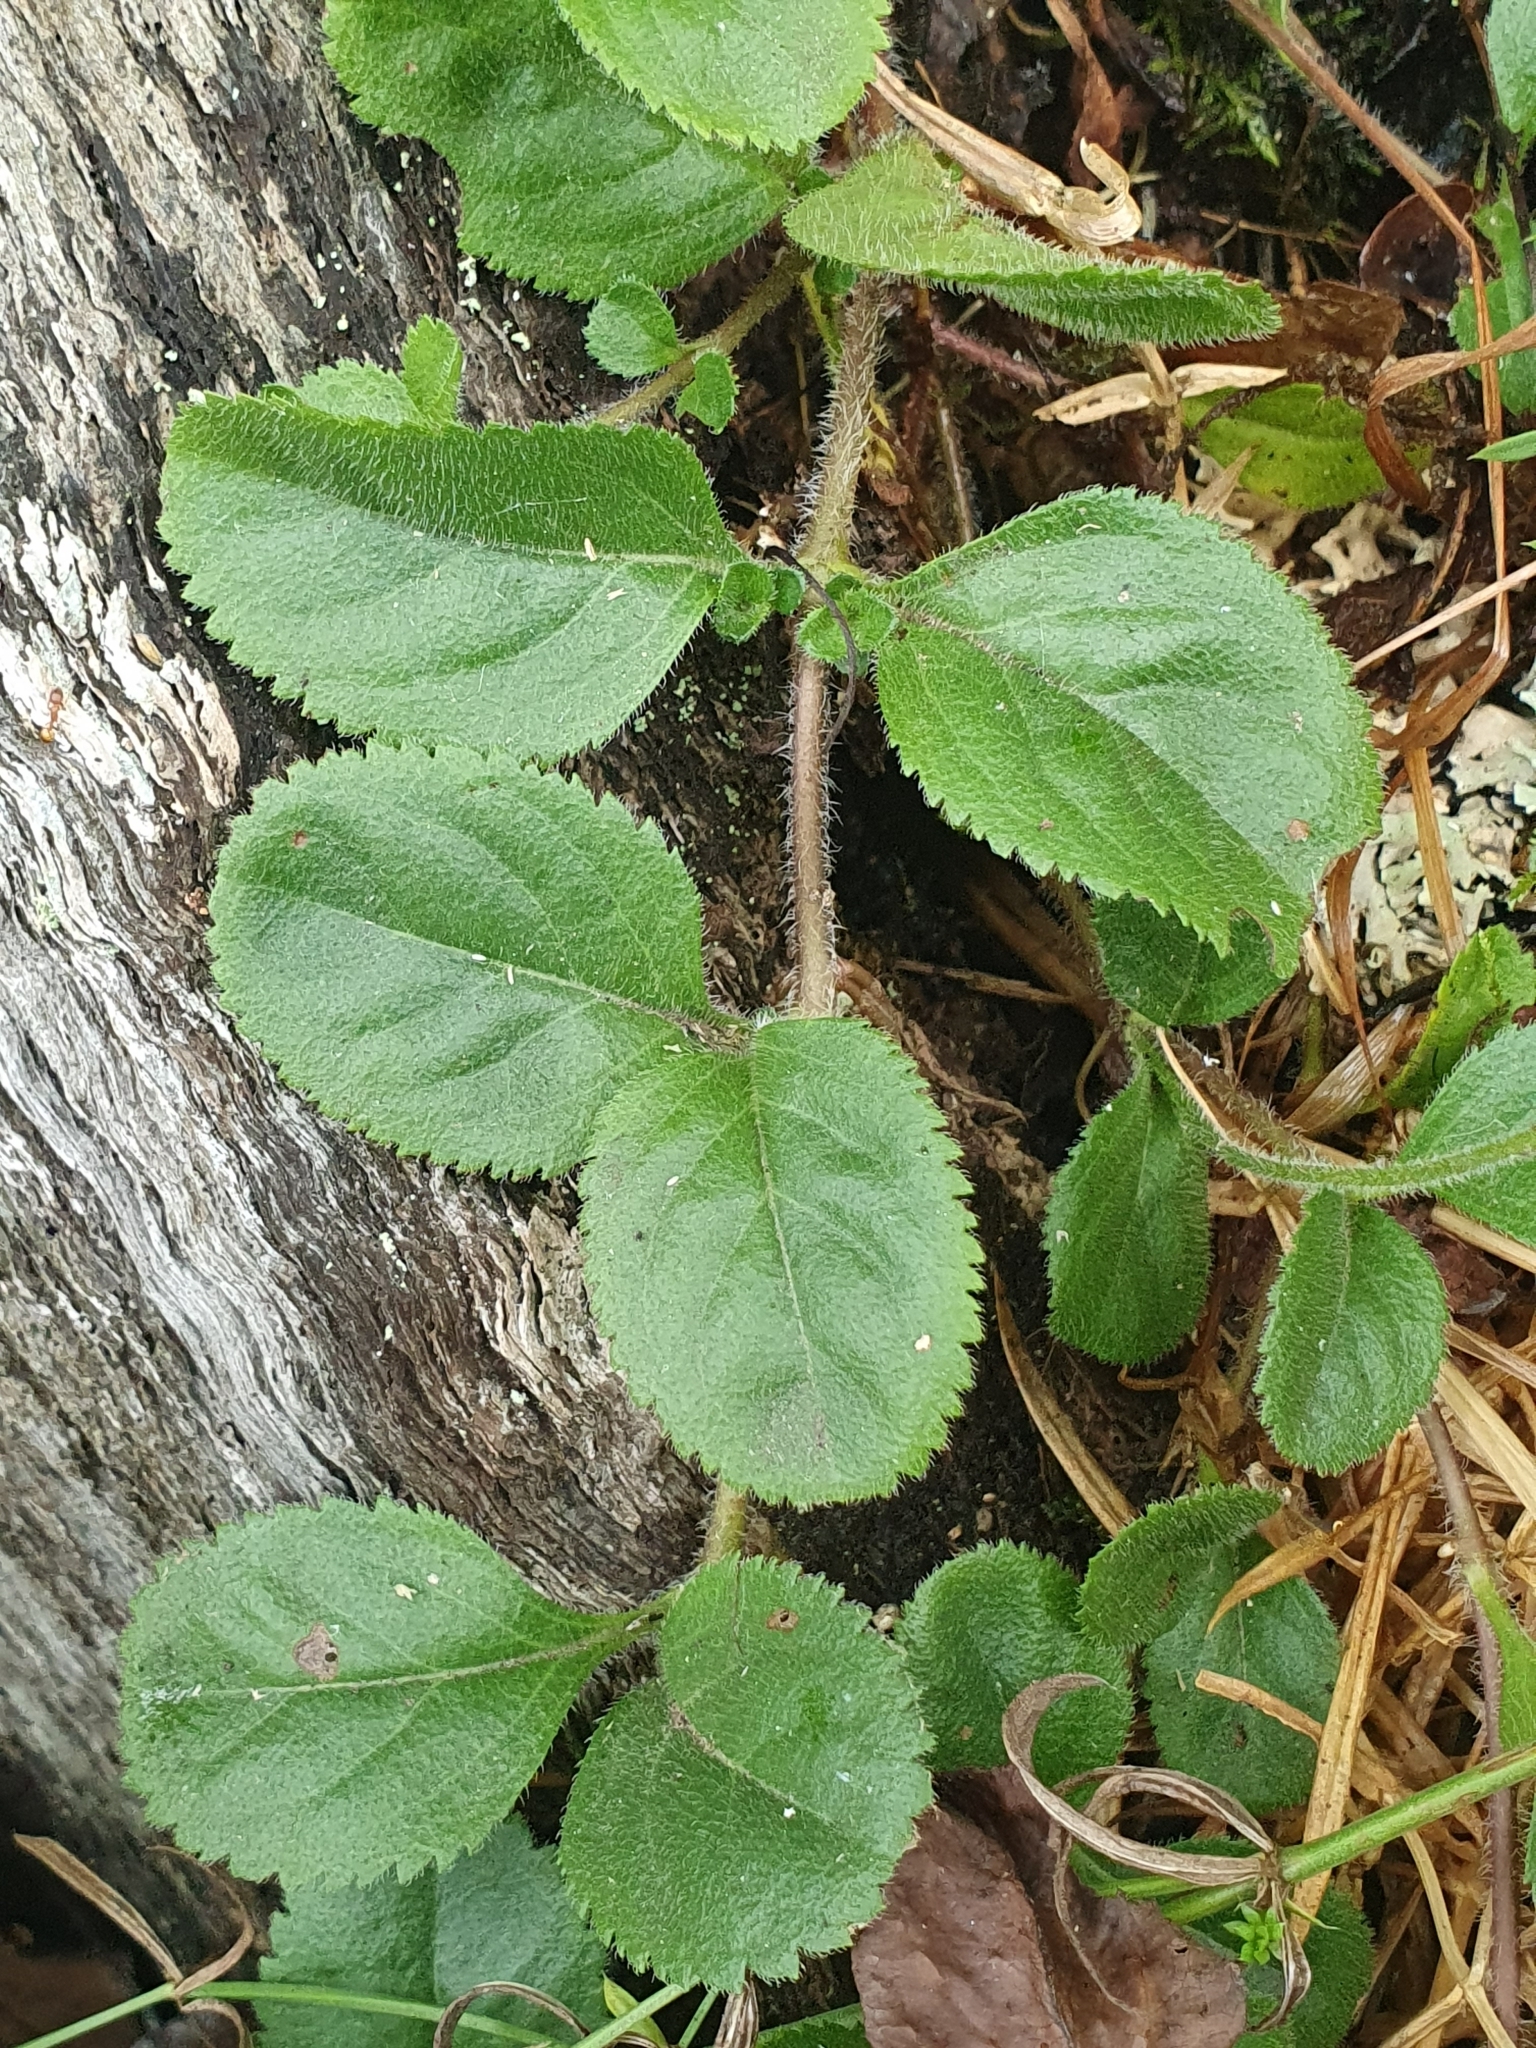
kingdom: Plantae
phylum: Tracheophyta
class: Magnoliopsida
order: Lamiales
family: Plantaginaceae
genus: Veronica
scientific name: Veronica officinalis
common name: Common speedwell
